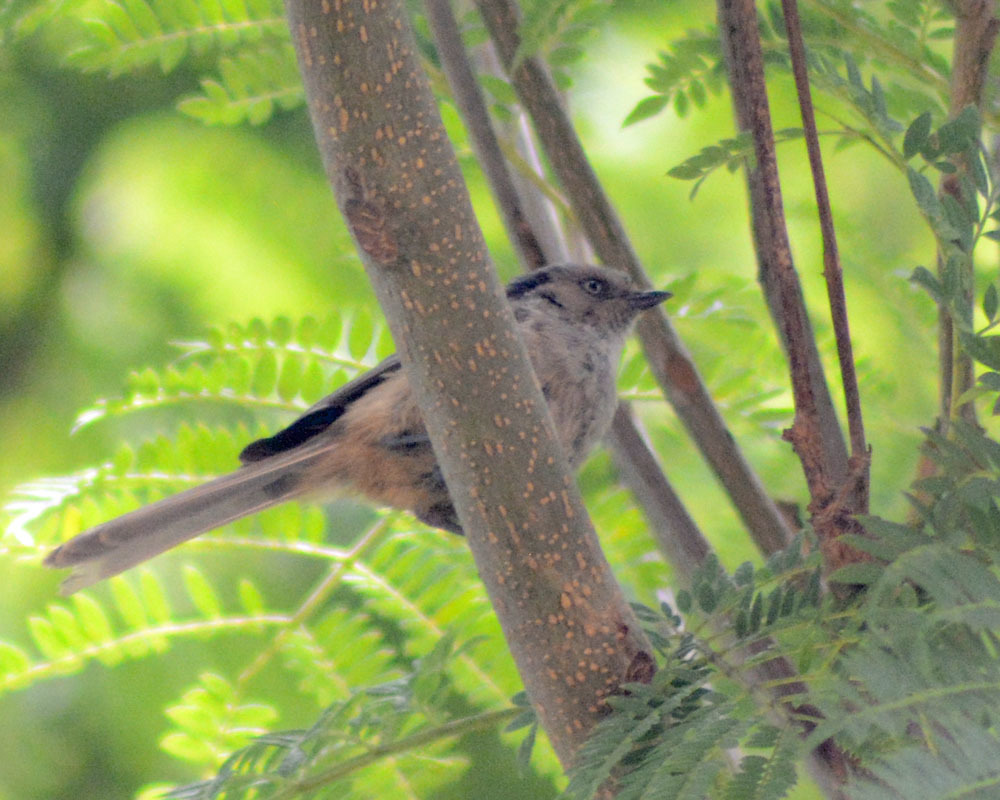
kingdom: Animalia
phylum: Chordata
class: Aves
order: Passeriformes
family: Aegithalidae
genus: Psaltriparus
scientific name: Psaltriparus minimus
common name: American bushtit
